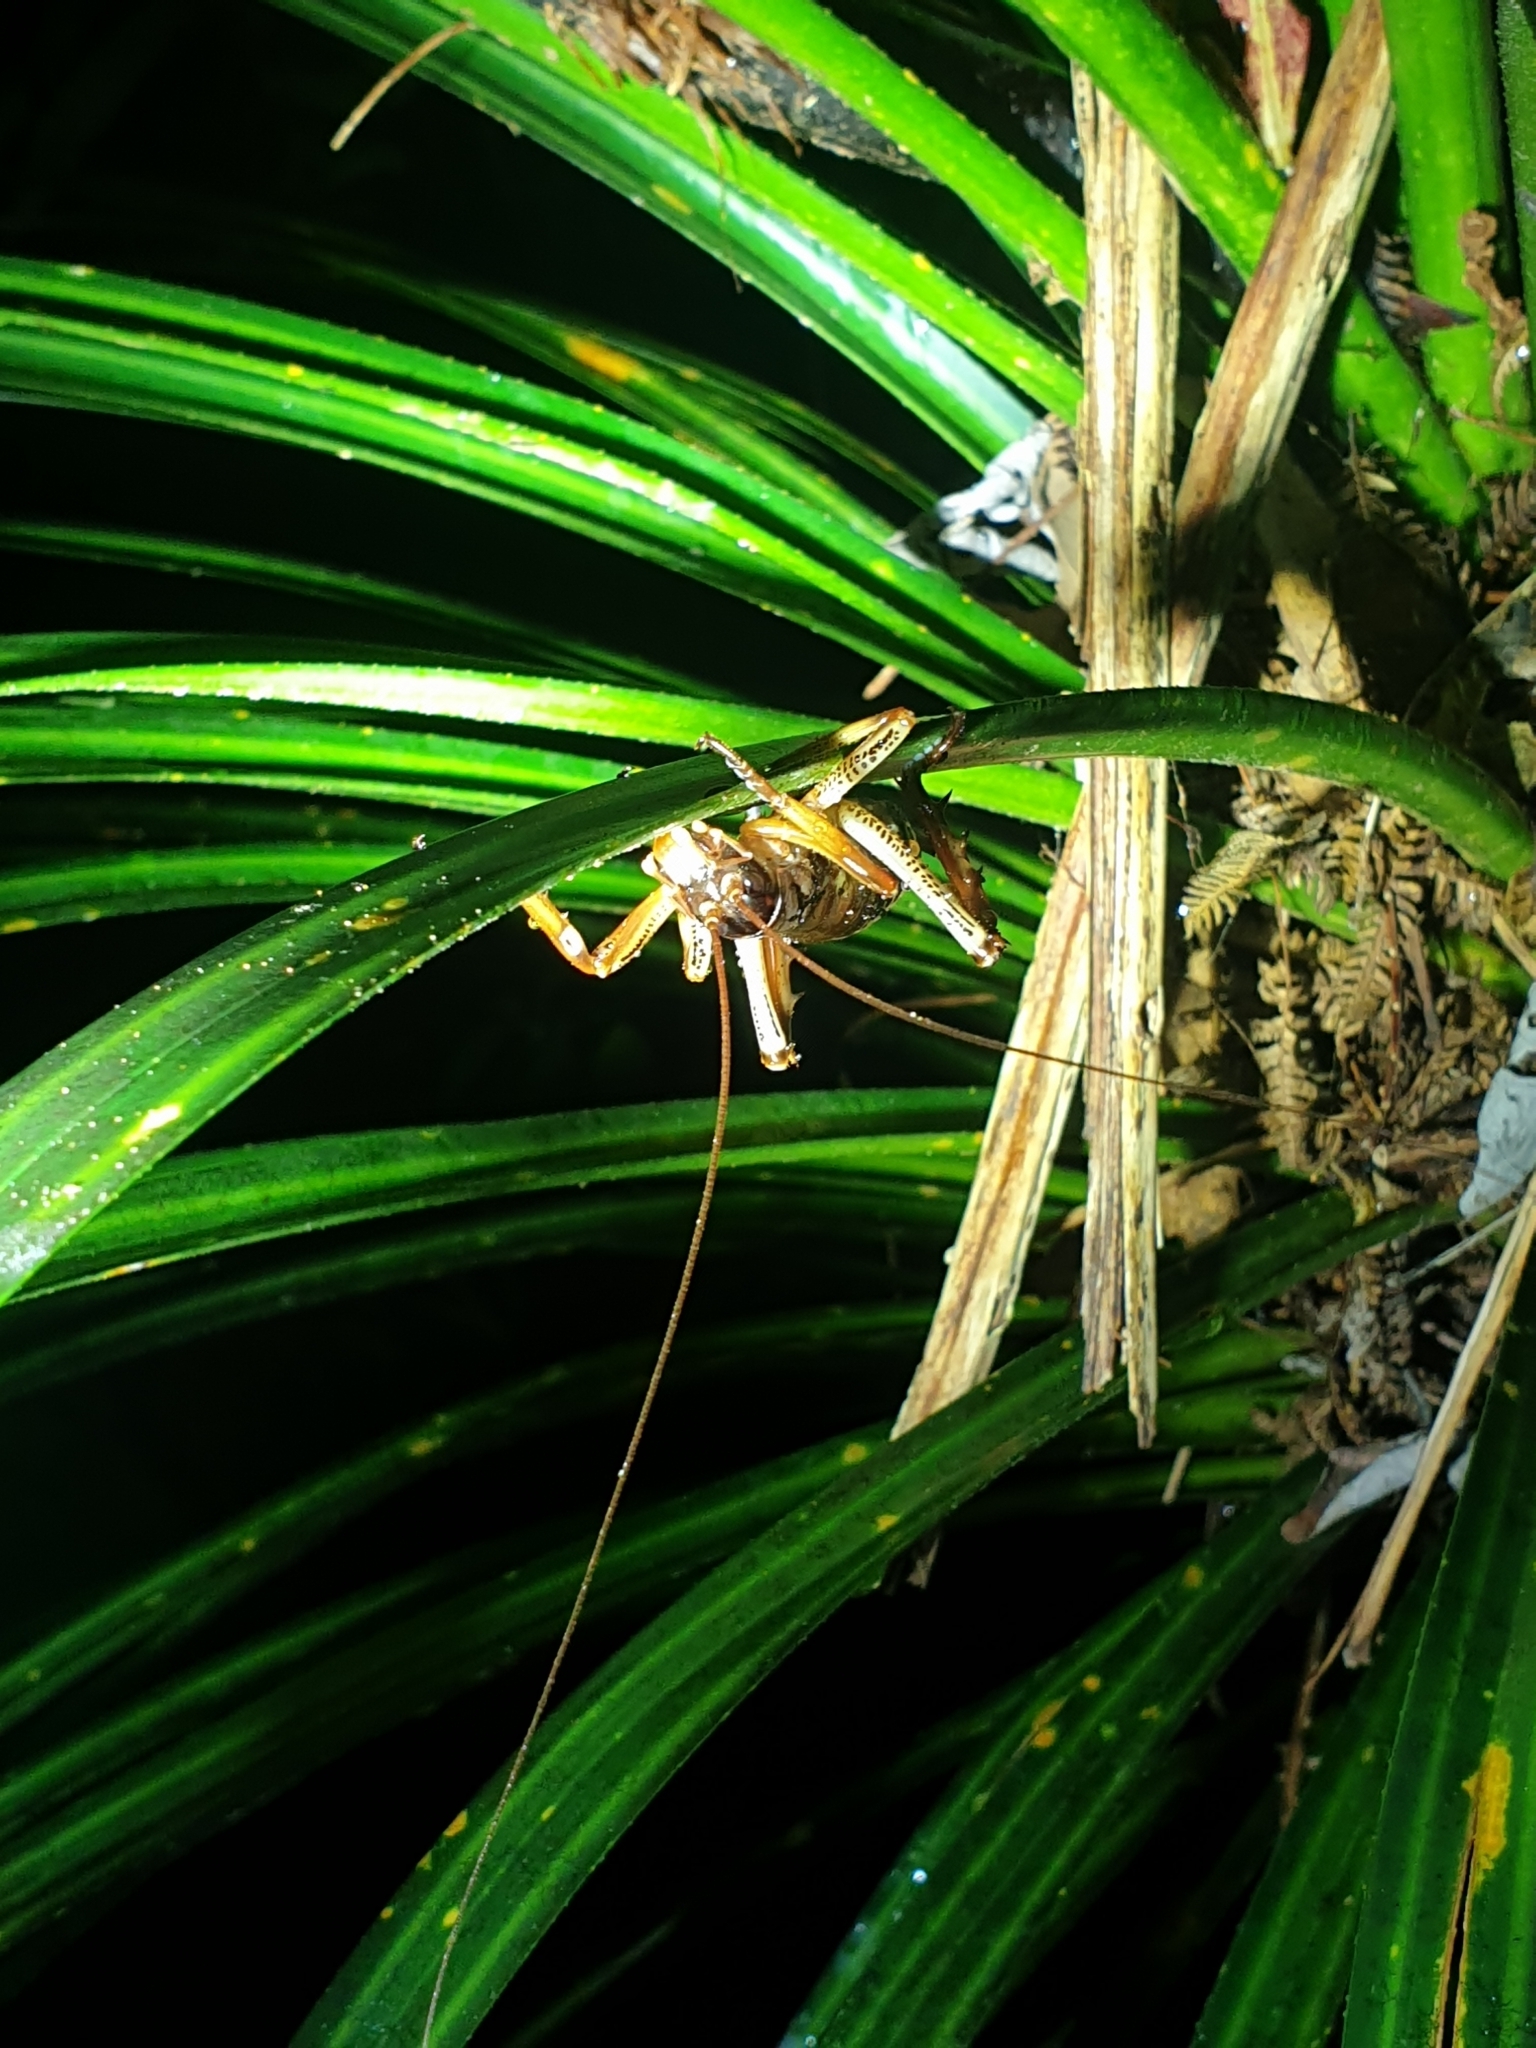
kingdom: Animalia
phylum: Arthropoda
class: Insecta
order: Orthoptera
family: Anostostomatidae
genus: Hemideina
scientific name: Hemideina thoracica
